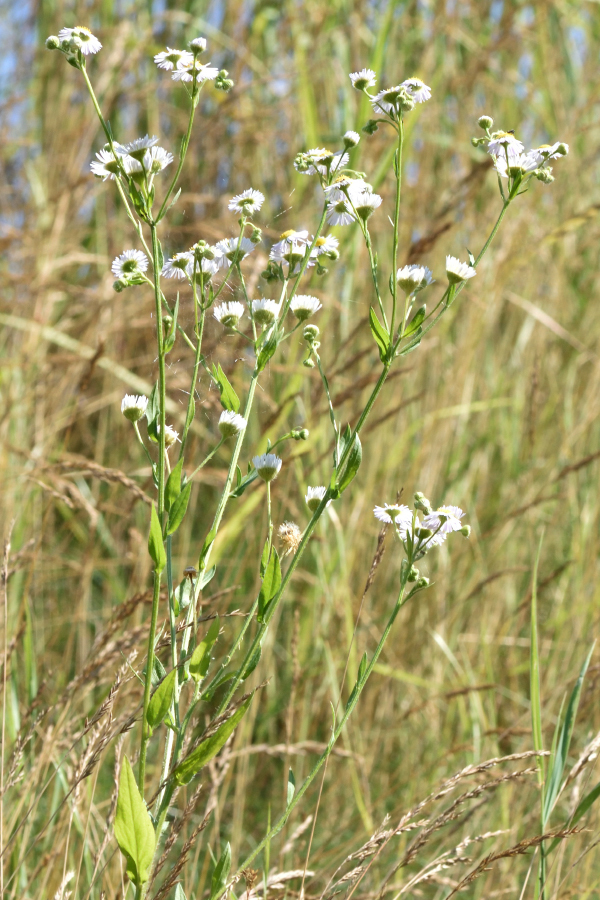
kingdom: Plantae
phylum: Tracheophyta
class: Magnoliopsida
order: Asterales
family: Asteraceae
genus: Erigeron
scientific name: Erigeron annuus
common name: Tall fleabane
